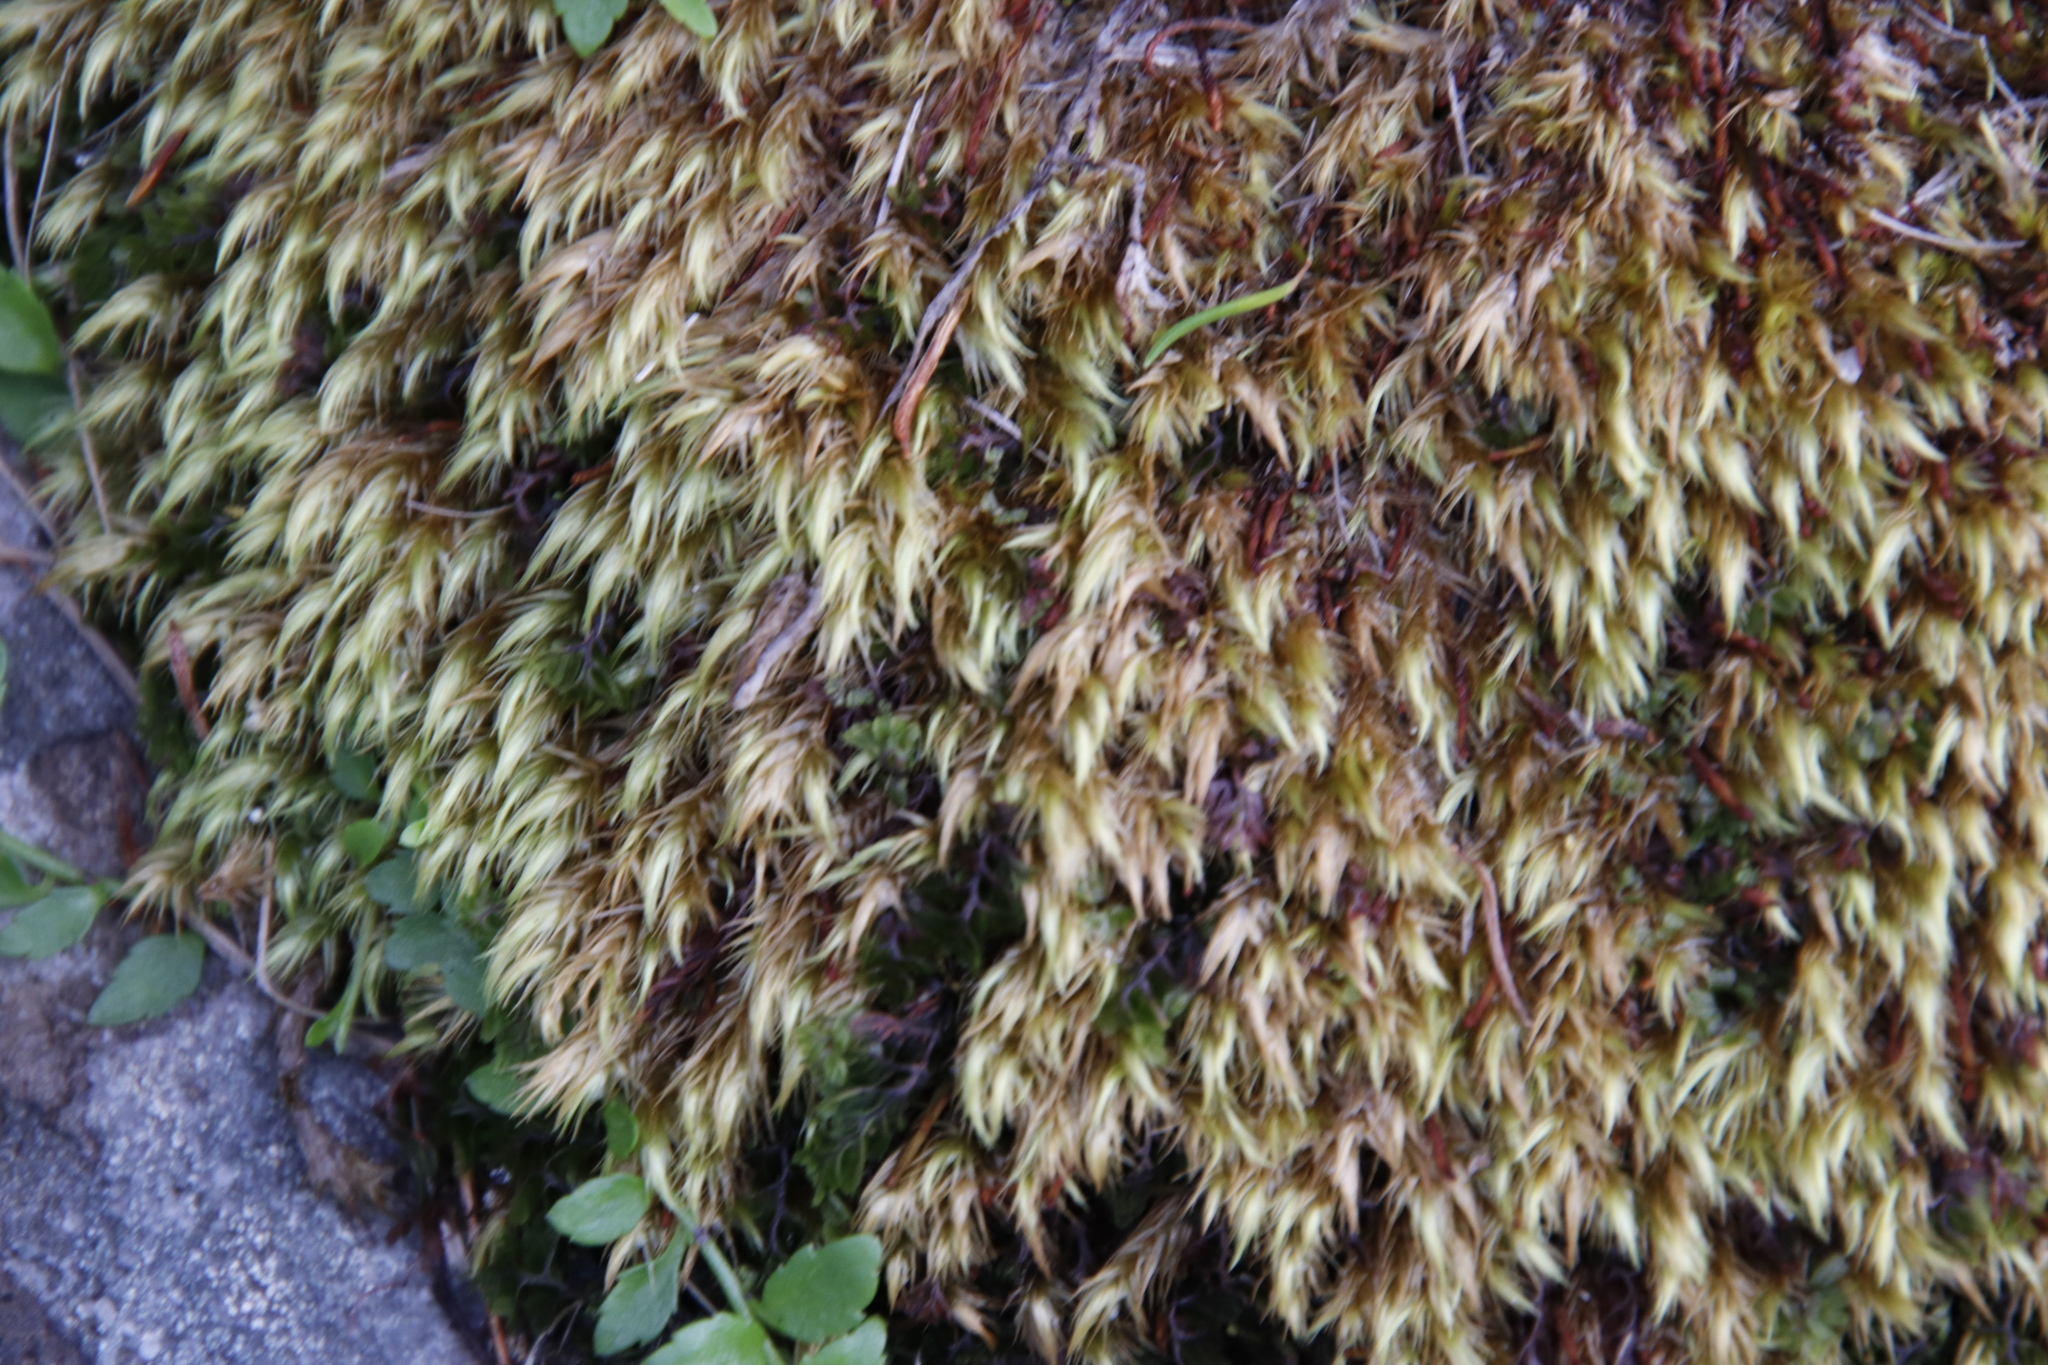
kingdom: Plantae
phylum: Bryophyta
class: Bryopsida
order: Dicranales
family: Dicranaceae
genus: Dicranoloma
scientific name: Dicranoloma billardieri
